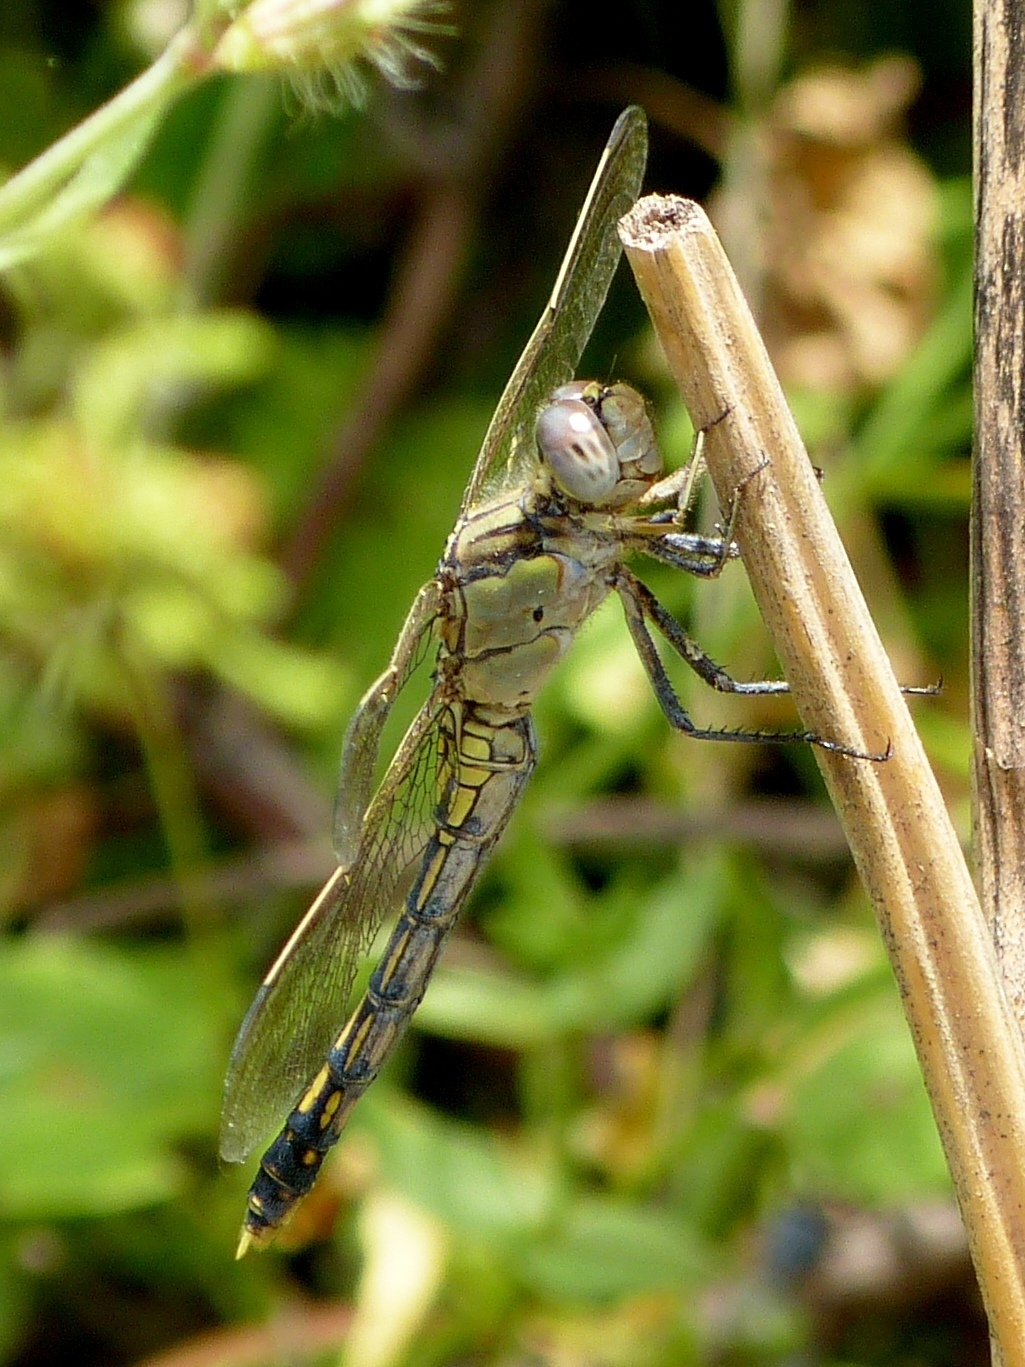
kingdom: Animalia
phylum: Arthropoda
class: Insecta
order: Odonata
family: Libellulidae
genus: Orthetrum
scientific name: Orthetrum caledonicum
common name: Blue skimmer
